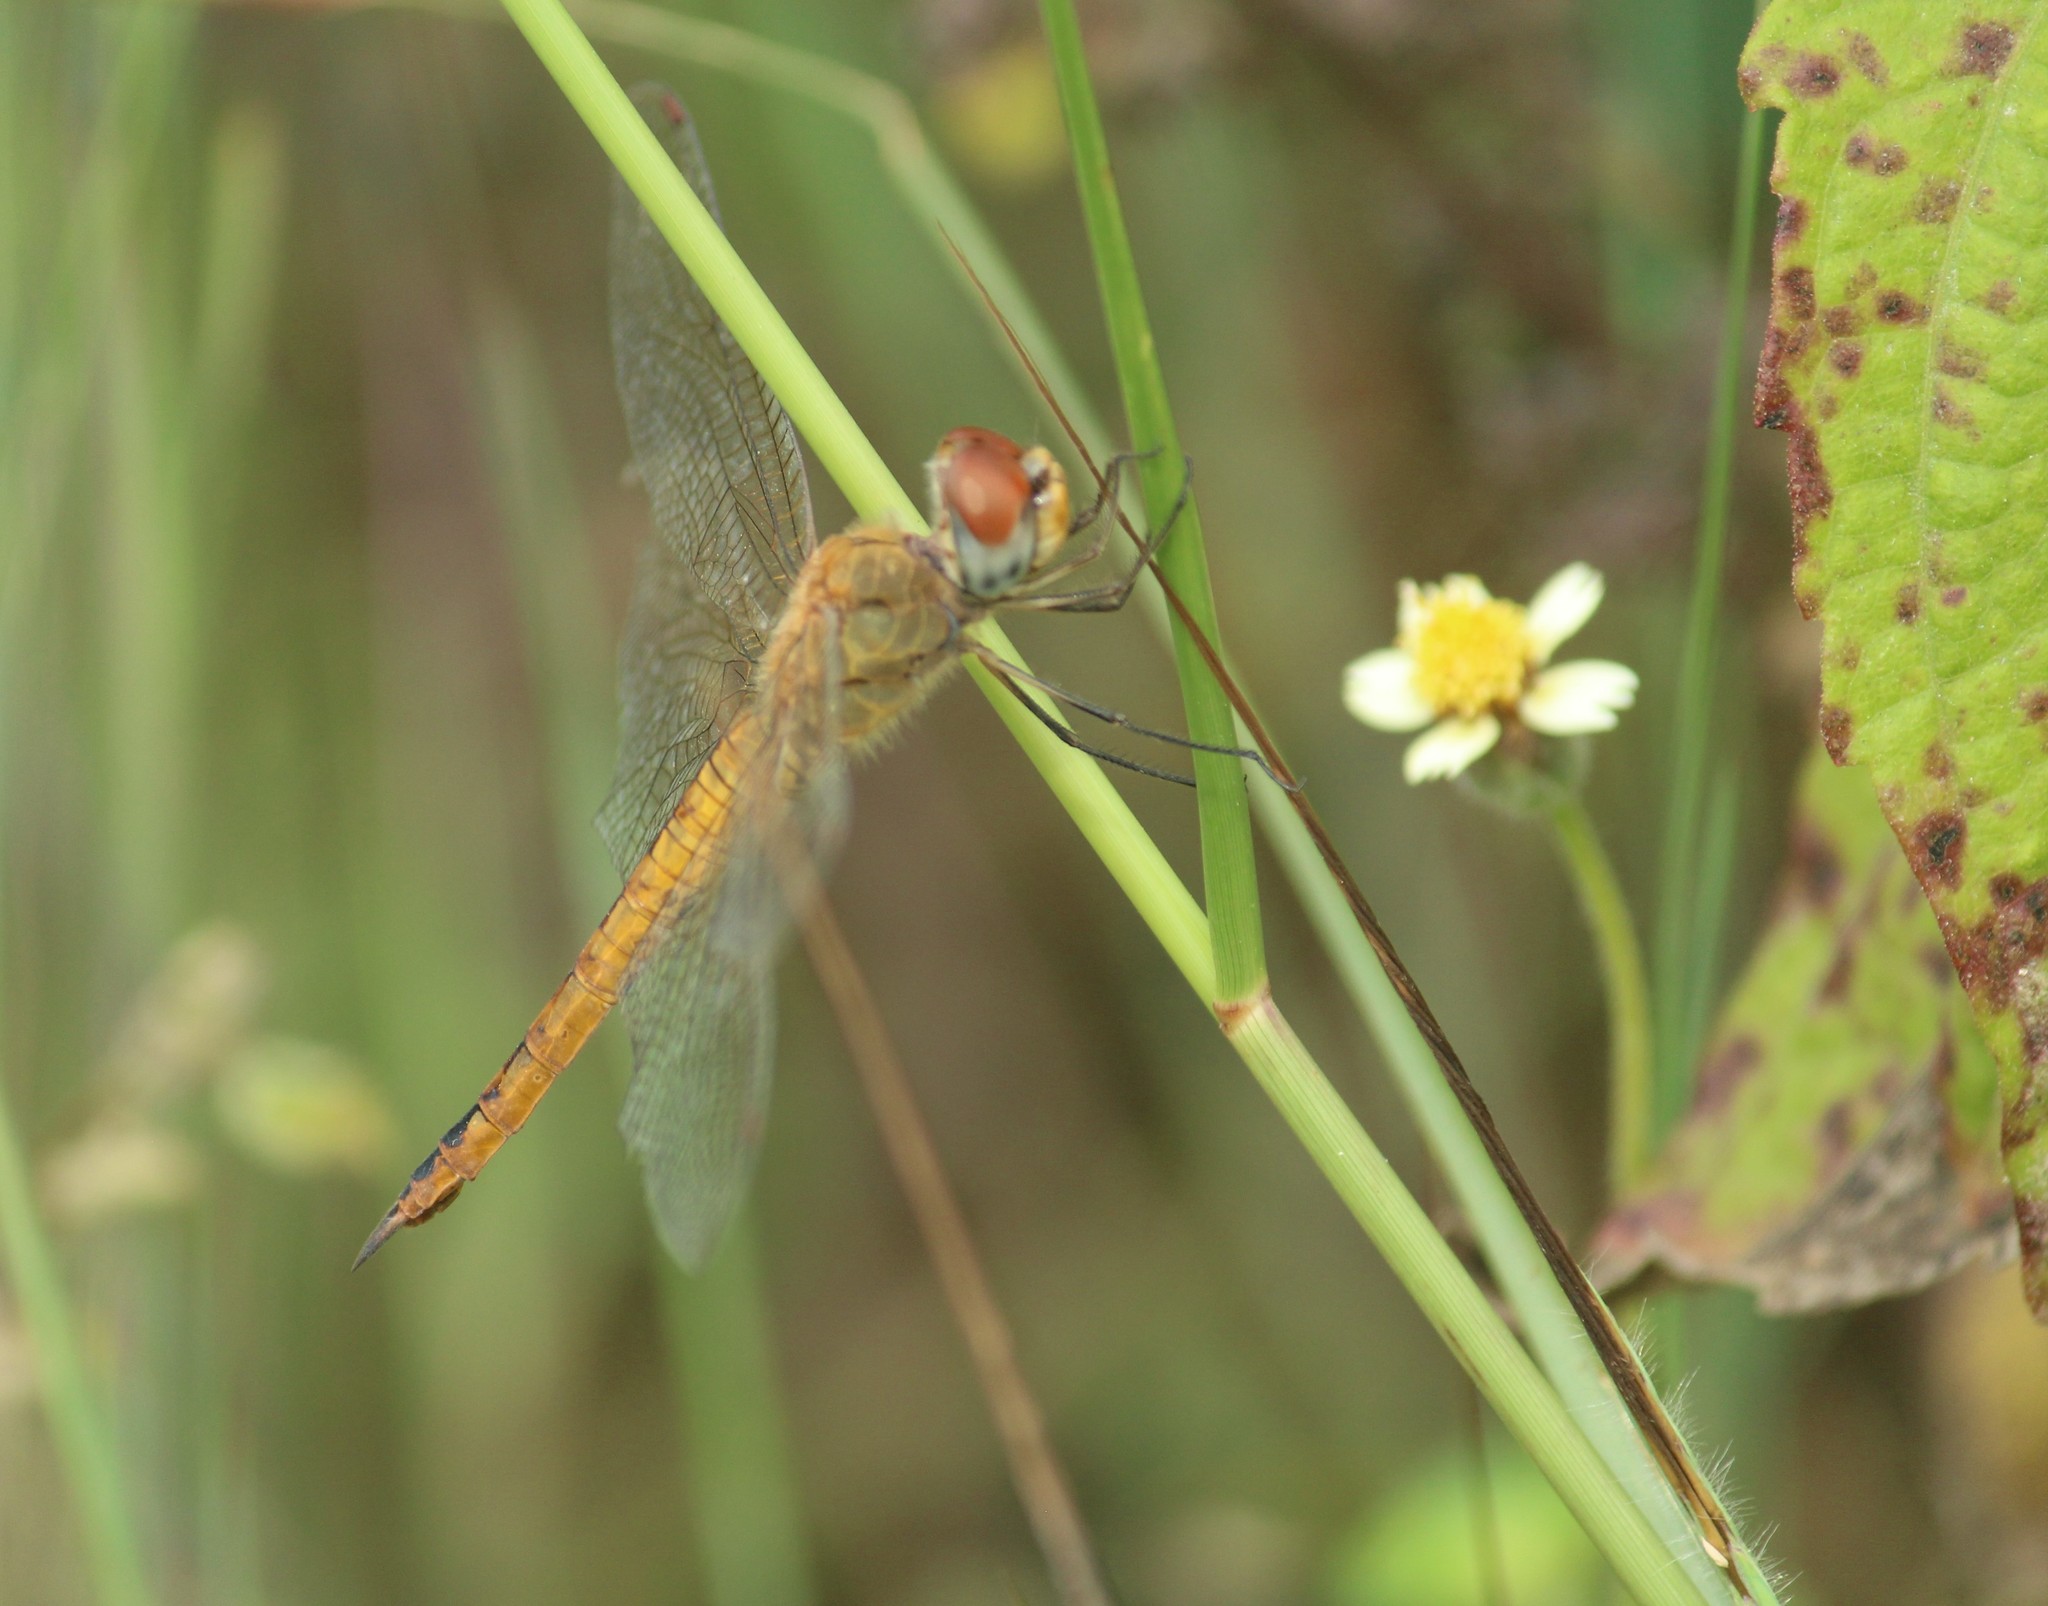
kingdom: Animalia
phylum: Arthropoda
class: Insecta
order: Odonata
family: Libellulidae
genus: Pantala
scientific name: Pantala flavescens
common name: Wandering glider
